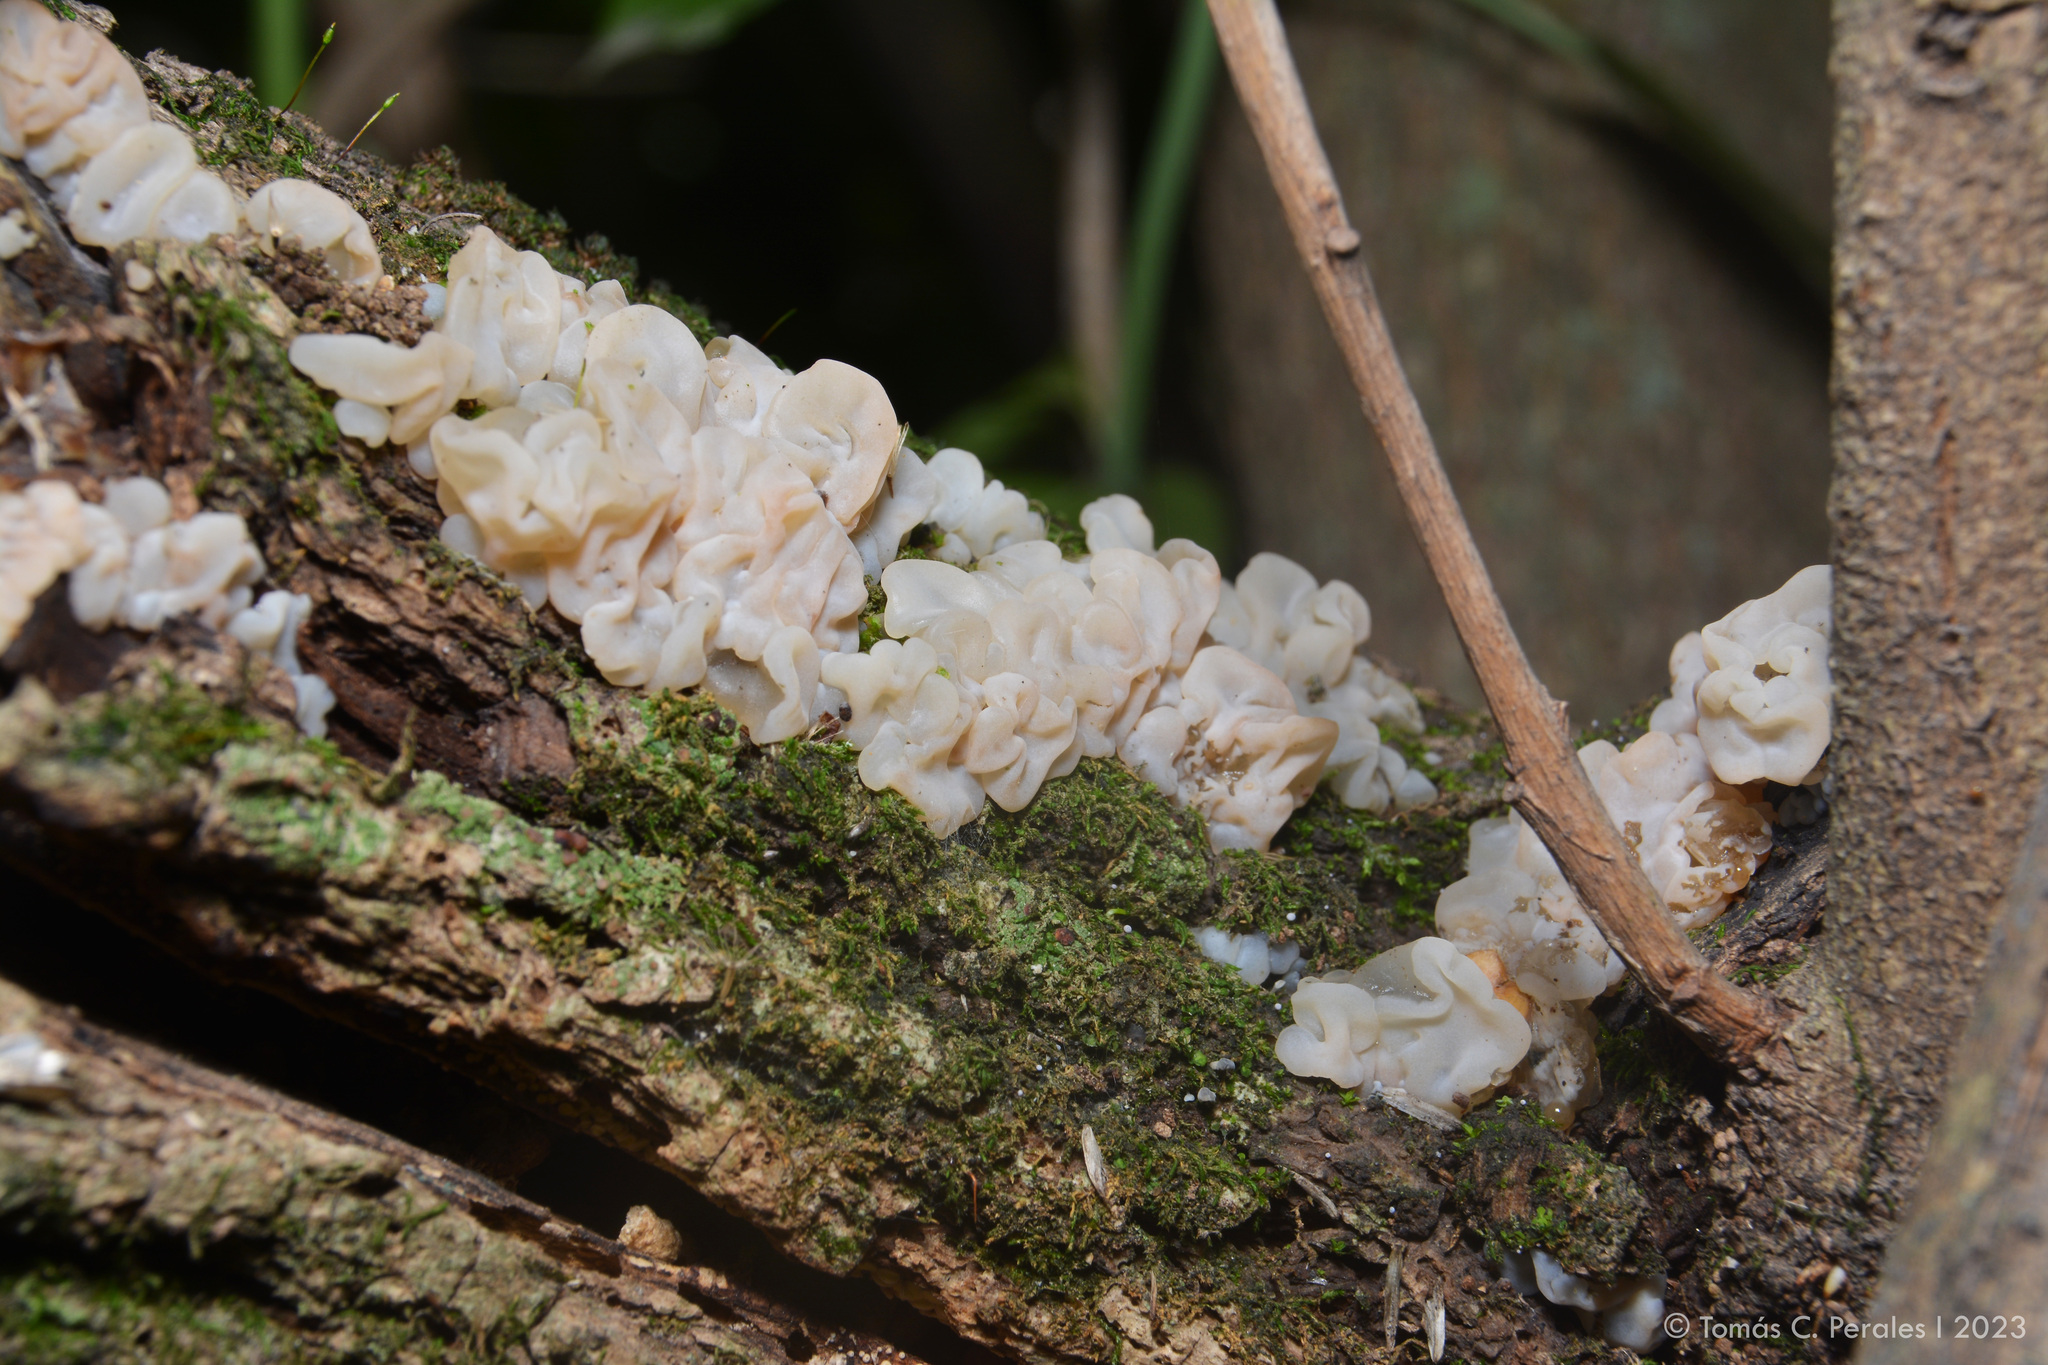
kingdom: Fungi
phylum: Basidiomycota
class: Agaricomycetes
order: Auriculariales
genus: Ductifera
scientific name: Ductifera pululahuana
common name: White jelly fungus
